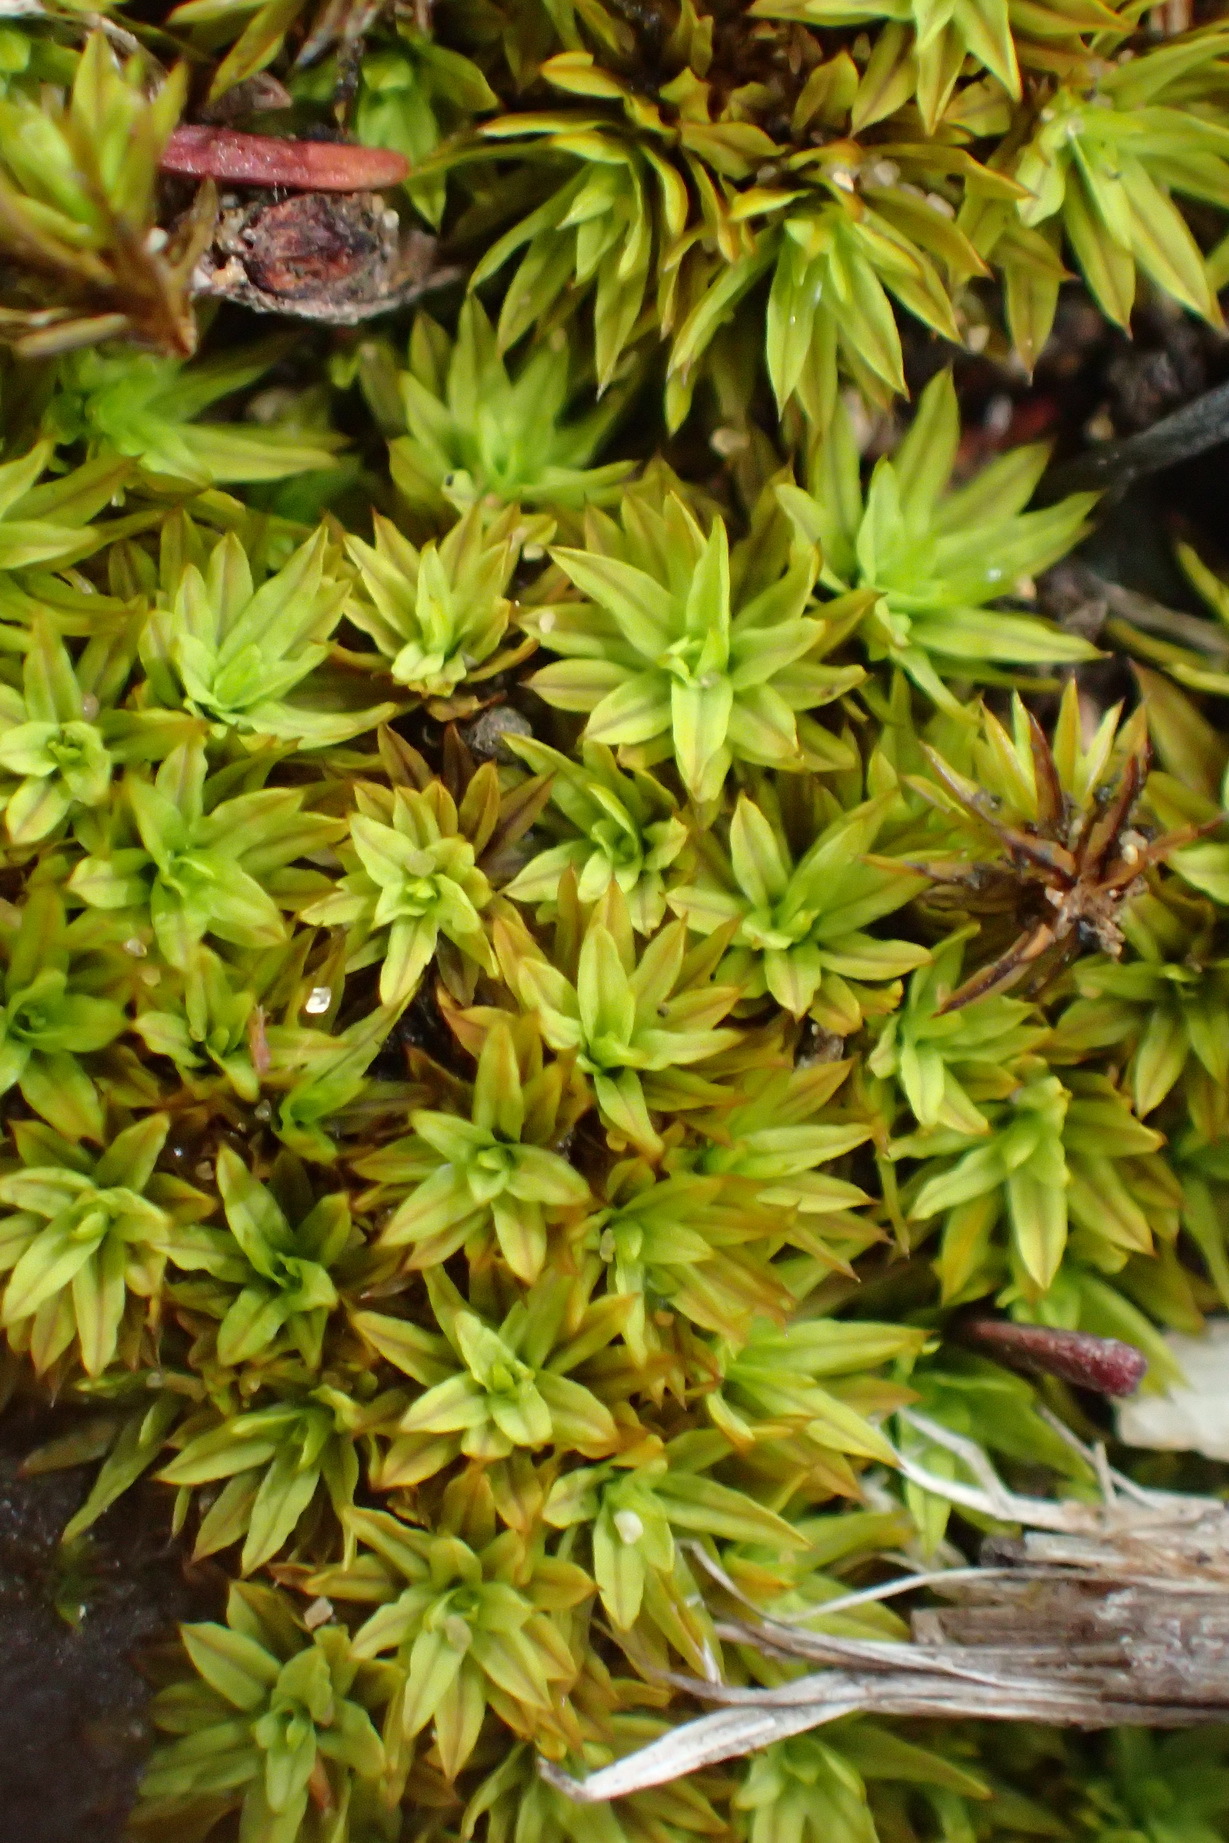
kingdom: Plantae
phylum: Bryophyta
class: Bryopsida
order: Pottiales
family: Pottiaceae
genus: Tortula
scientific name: Tortula atrovirens
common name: Rib-leaf moss
